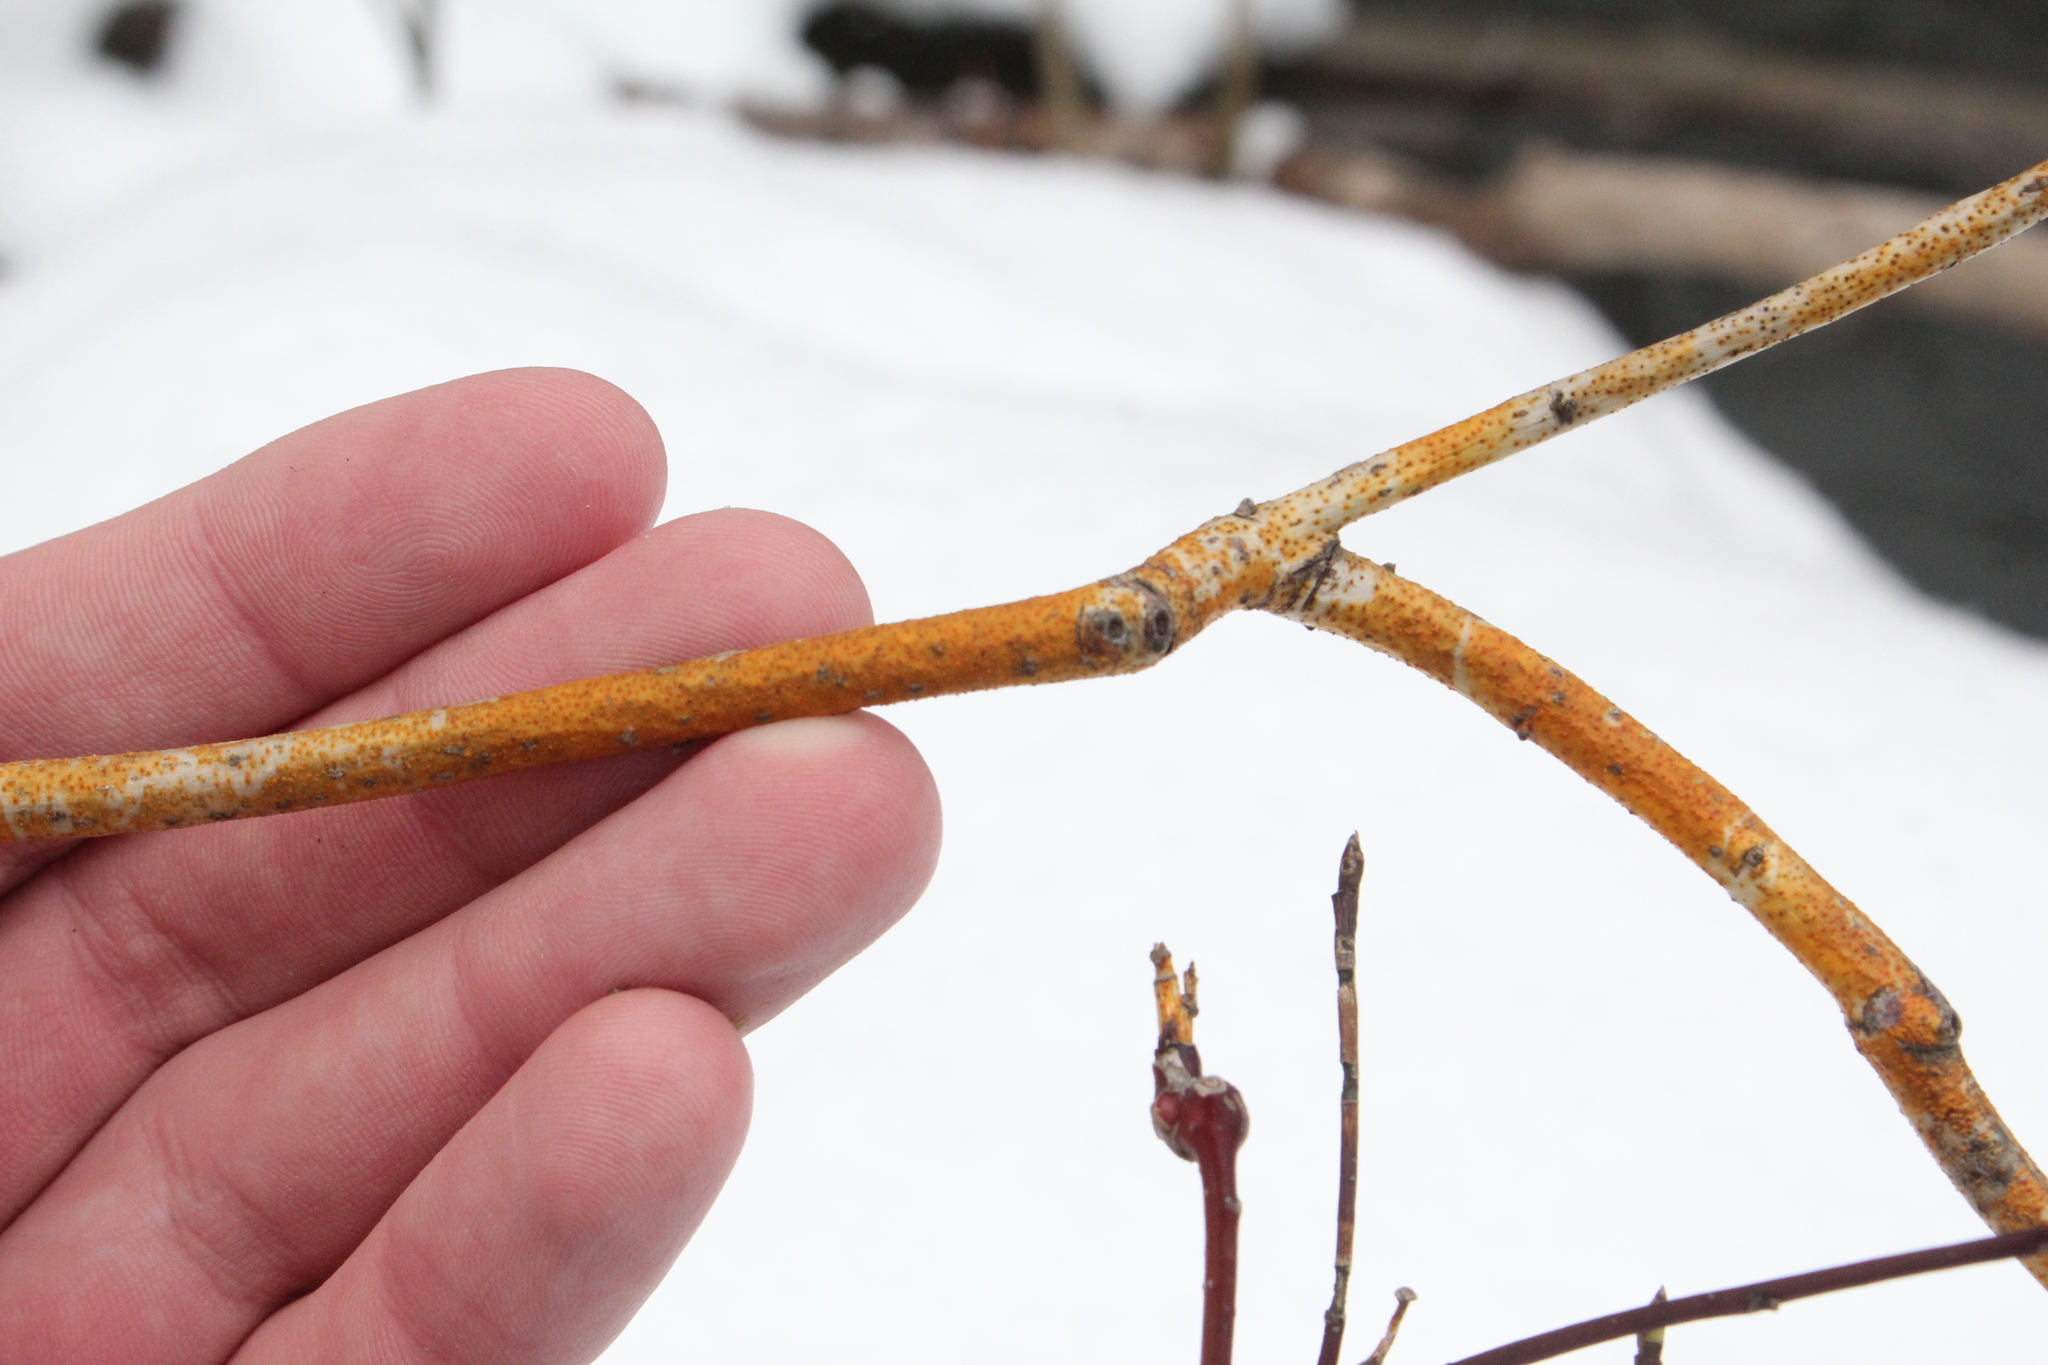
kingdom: Fungi
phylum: Ascomycota
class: Sordariomycetes
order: Diaporthales
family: Cryphonectriaceae
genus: Aurantioporthe
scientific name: Aurantioporthe corni
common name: Dogwood golden canker
